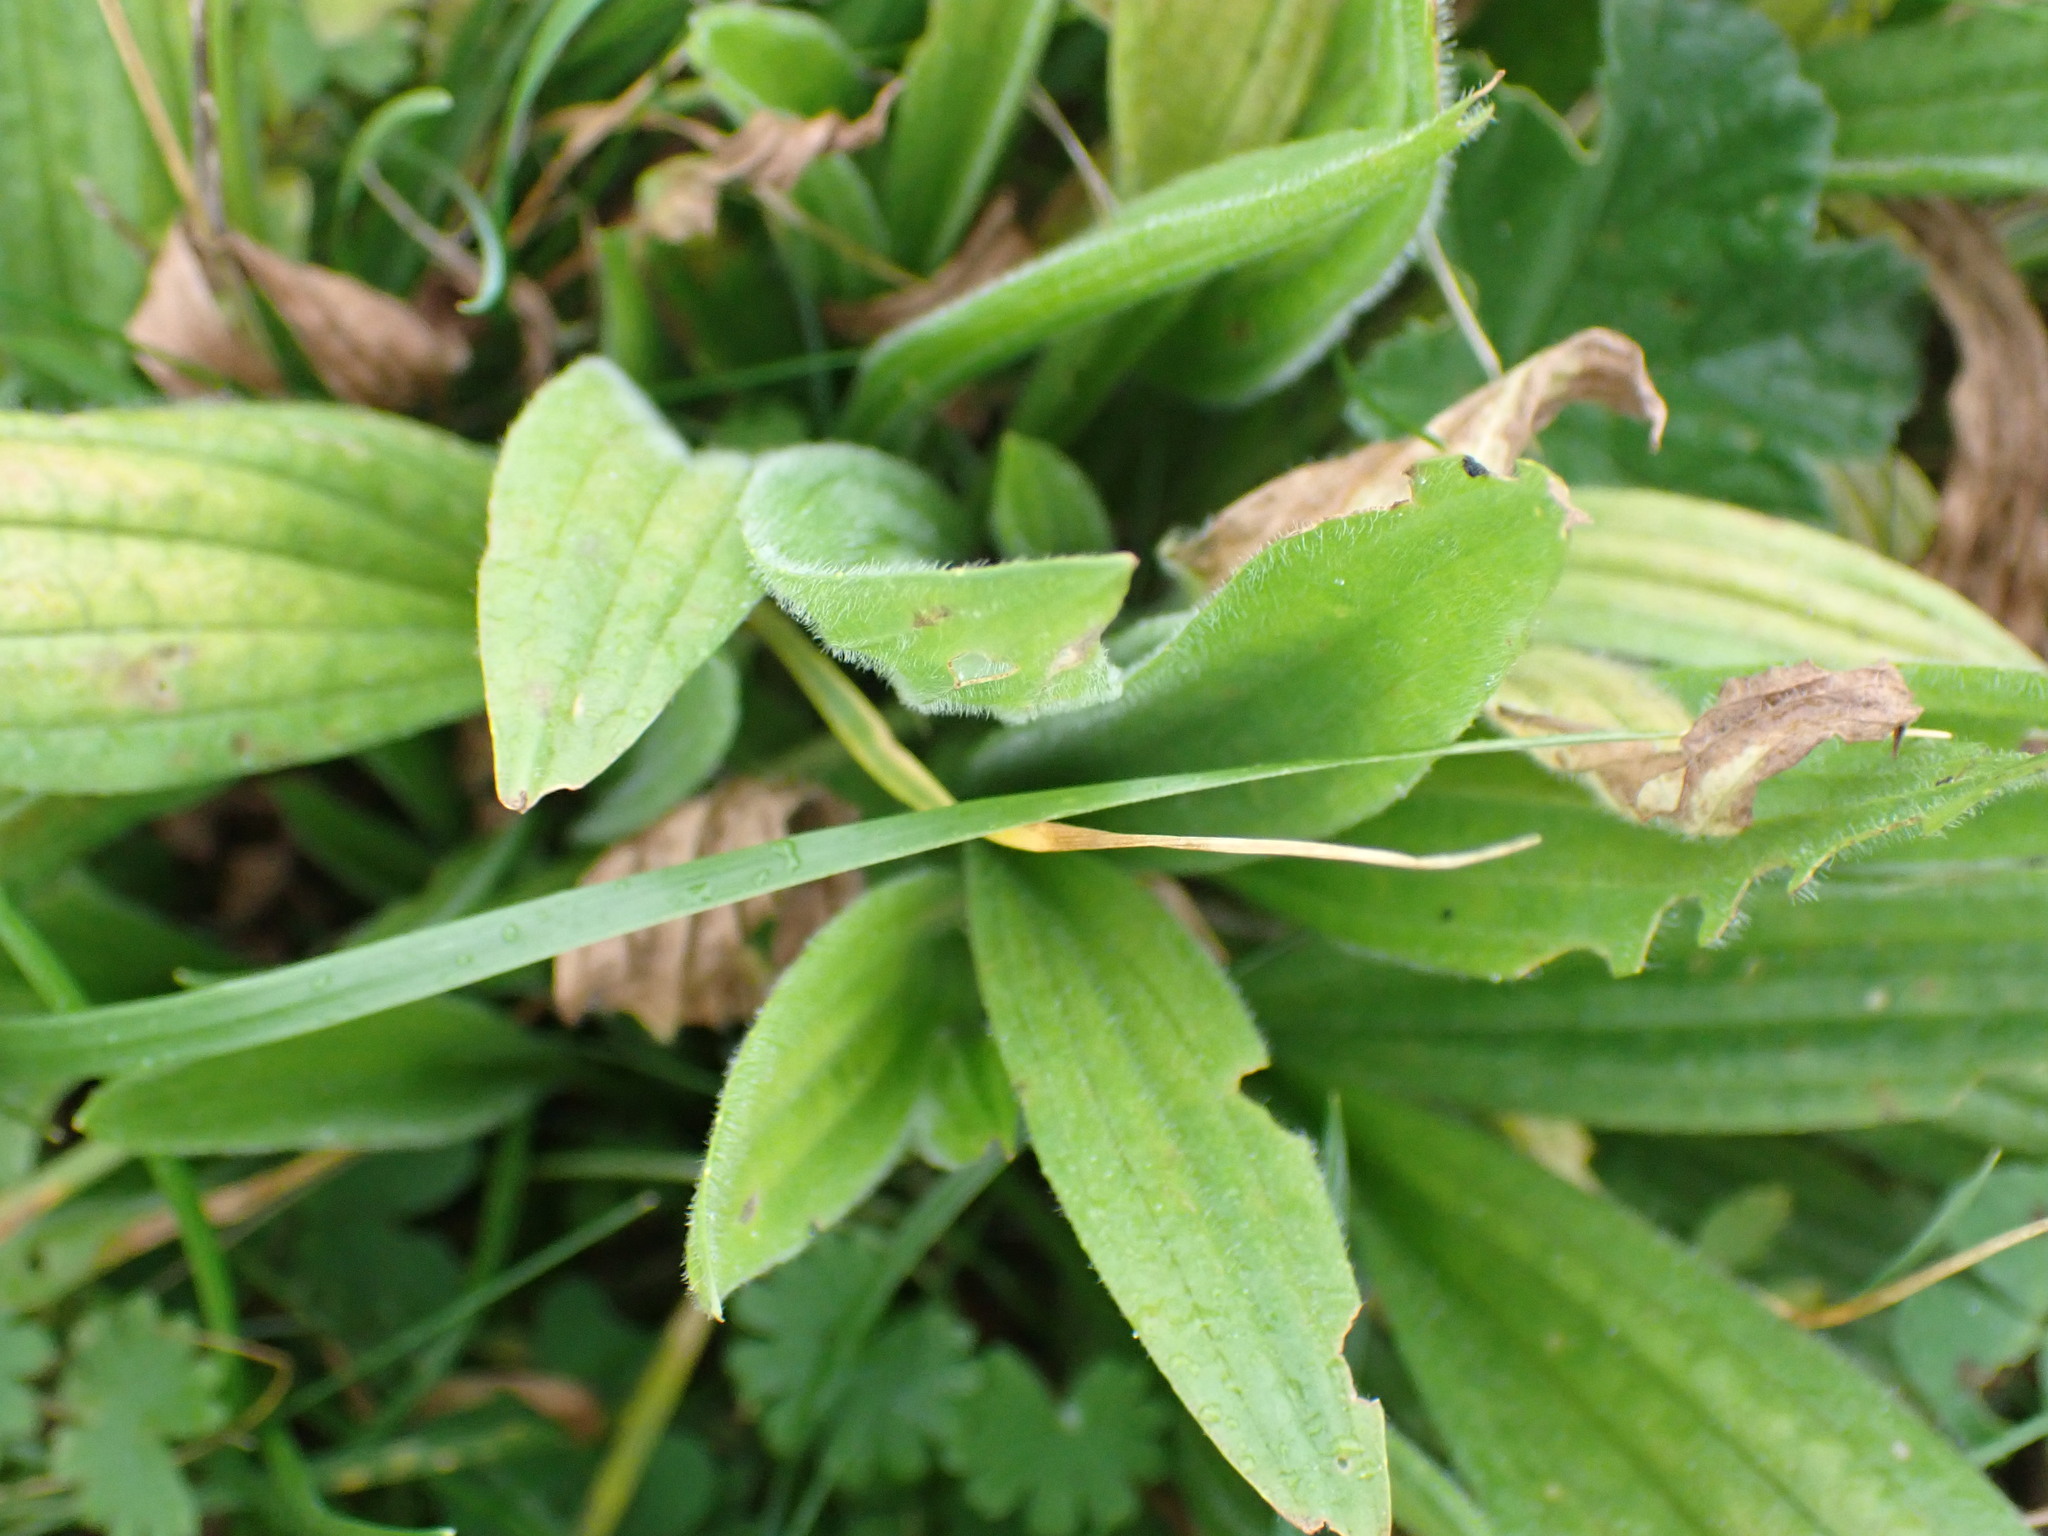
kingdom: Plantae
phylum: Tracheophyta
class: Magnoliopsida
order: Lamiales
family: Plantaginaceae
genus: Plantago
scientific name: Plantago lanceolata
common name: Ribwort plantain
